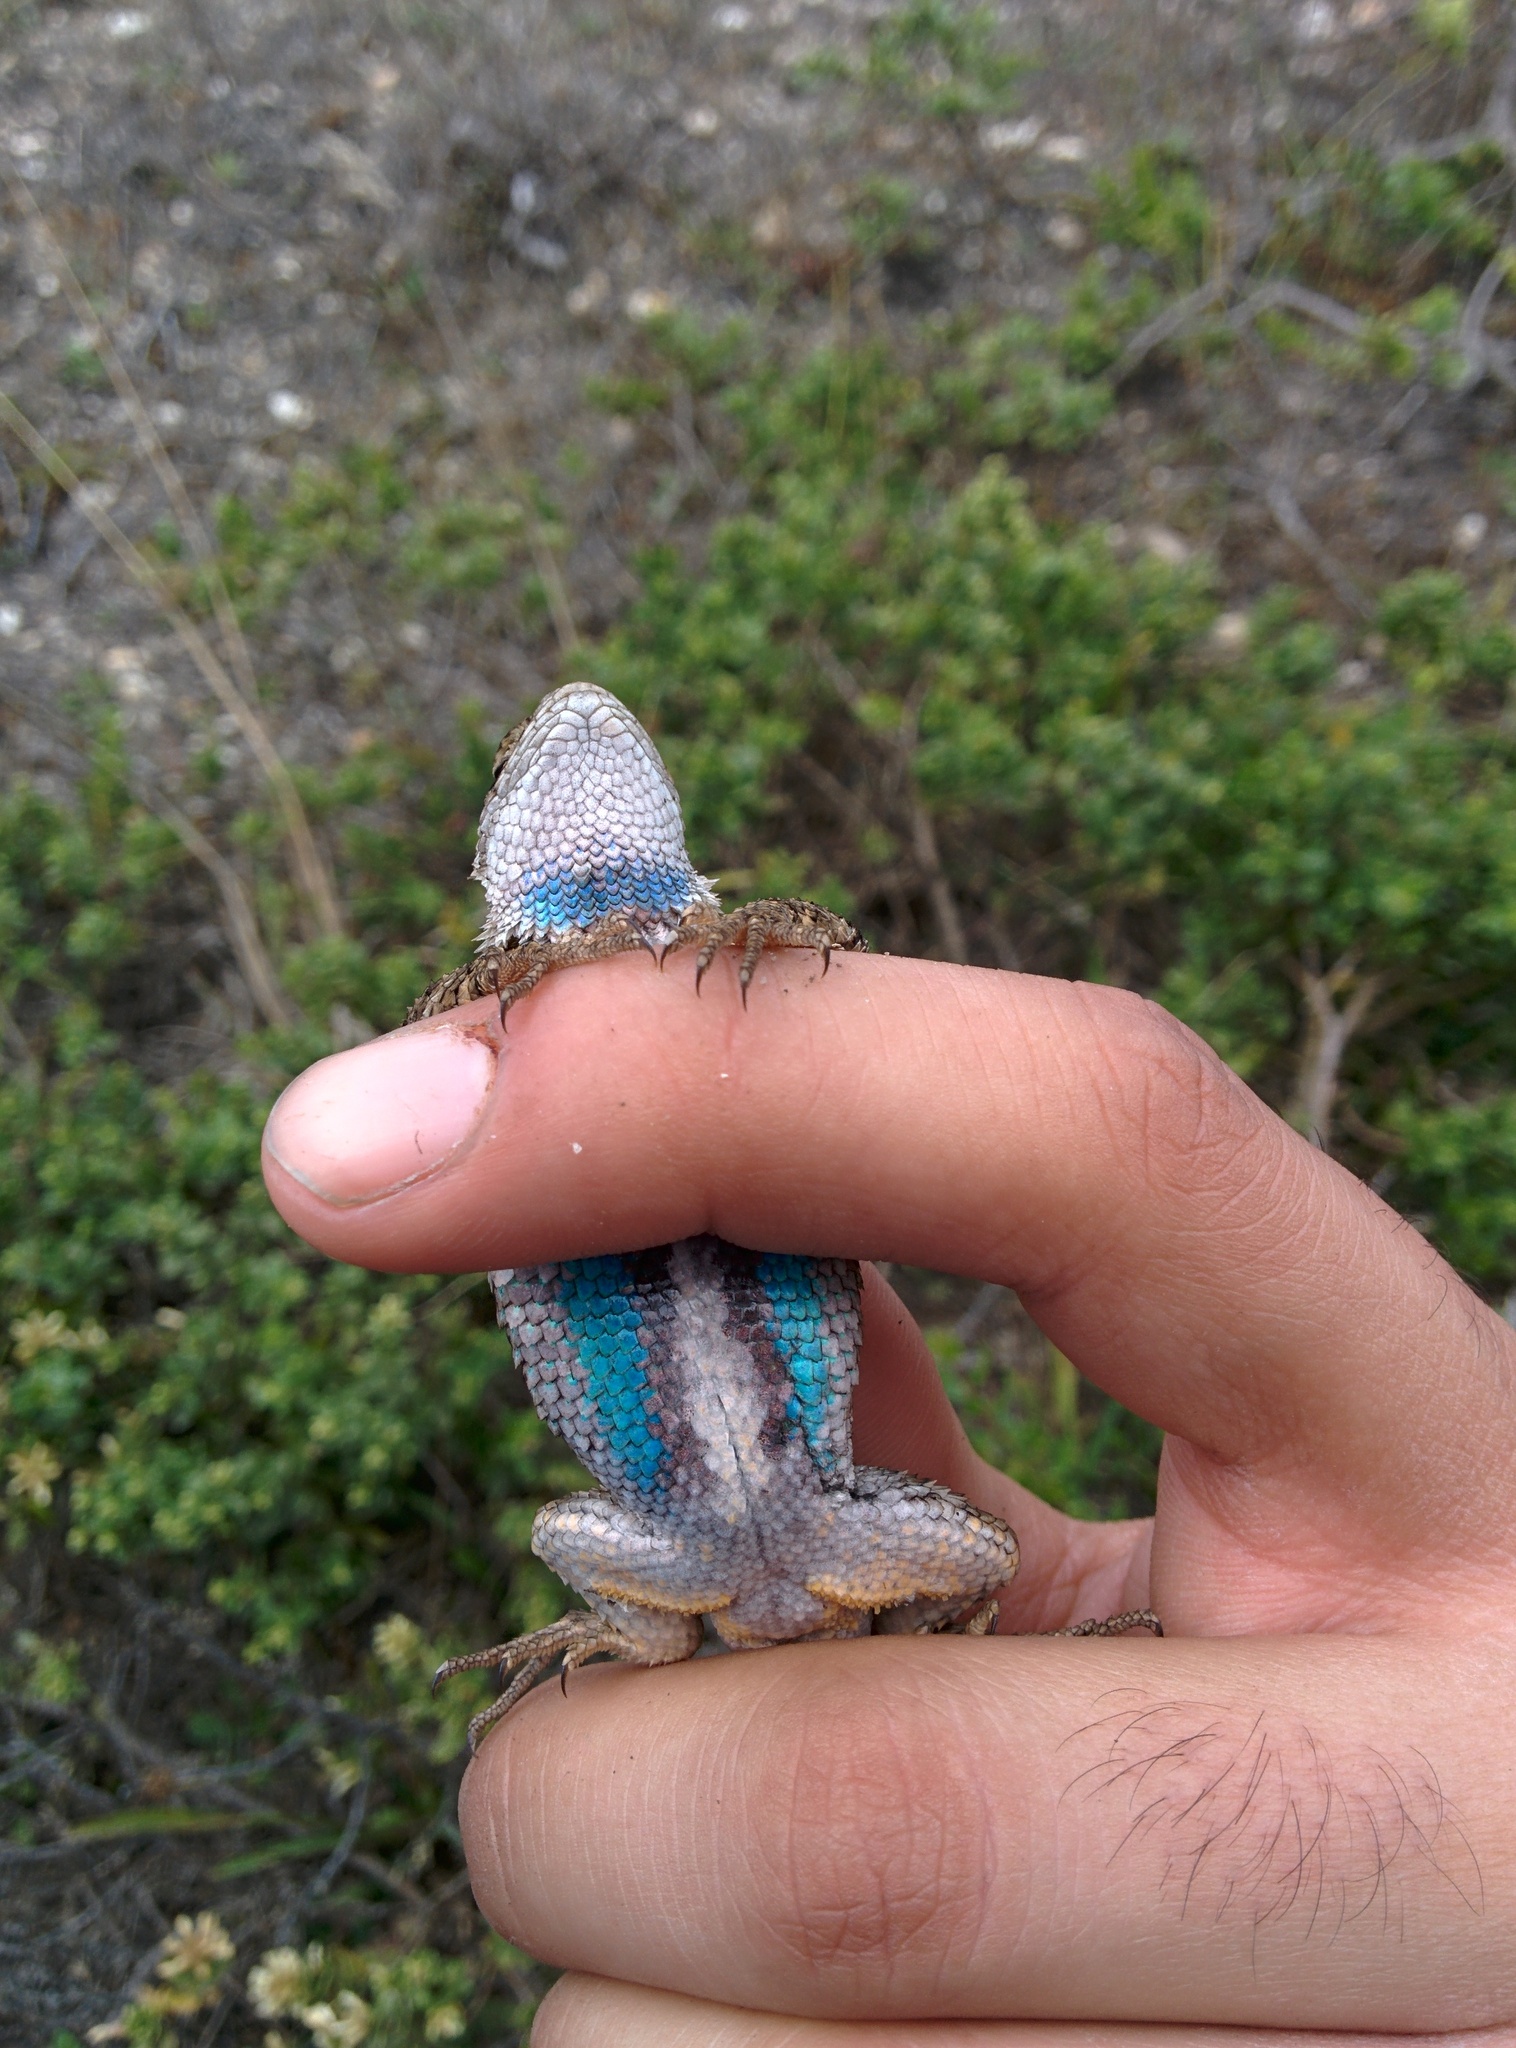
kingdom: Animalia
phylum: Chordata
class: Squamata
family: Phrynosomatidae
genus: Sceloporus
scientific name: Sceloporus occidentalis
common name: Western fence lizard
